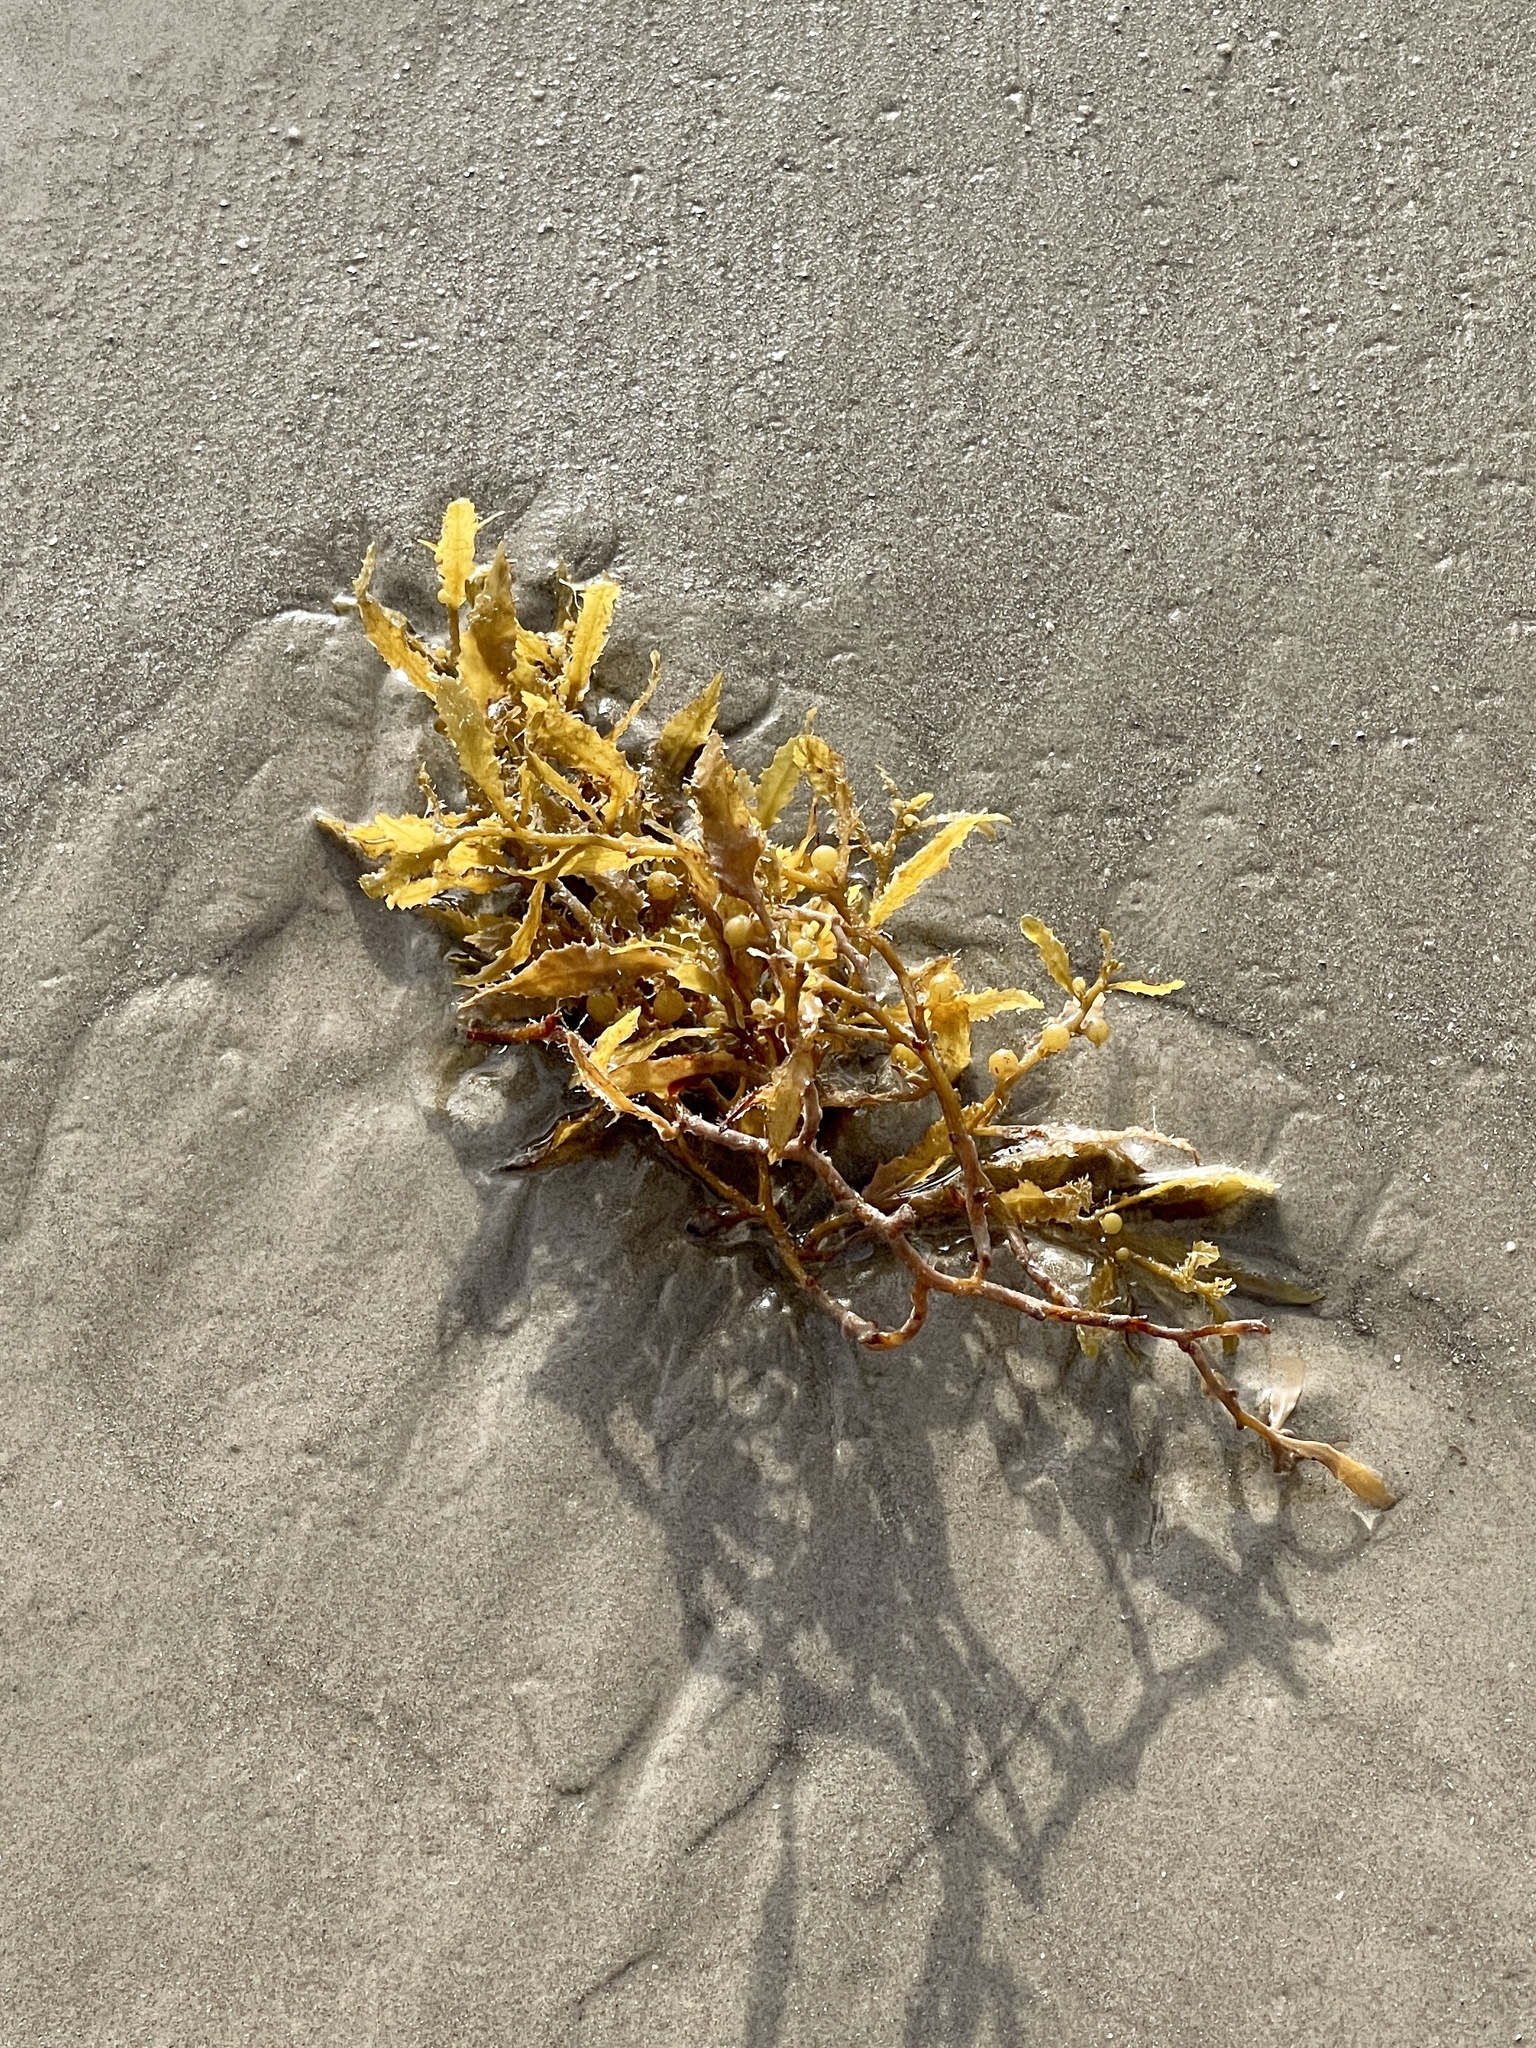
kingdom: Chromista
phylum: Ochrophyta
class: Phaeophyceae
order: Fucales
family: Sargassaceae
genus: Sargassum
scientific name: Sargassum fluitans
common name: Sargassum seaweed
